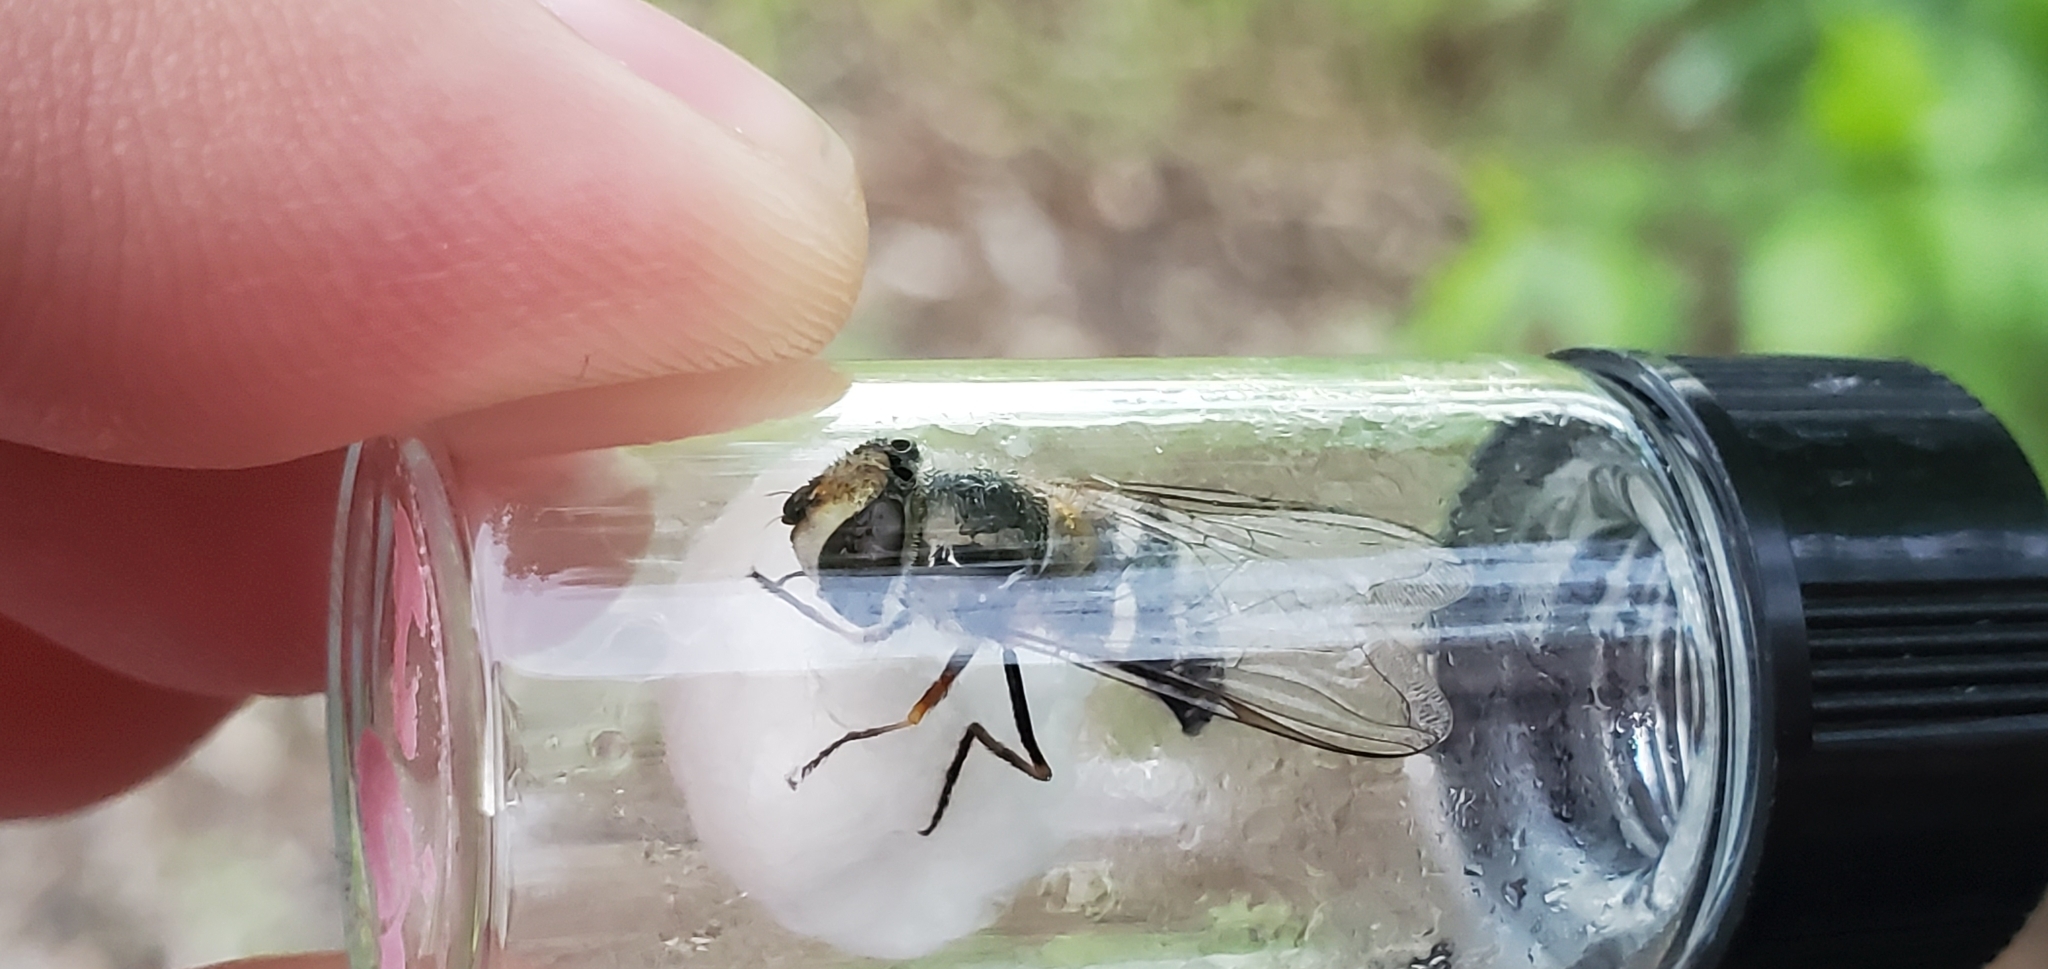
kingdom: Animalia
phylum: Arthropoda
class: Insecta
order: Diptera
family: Syrphidae
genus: Scaeva
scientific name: Scaeva affinis
